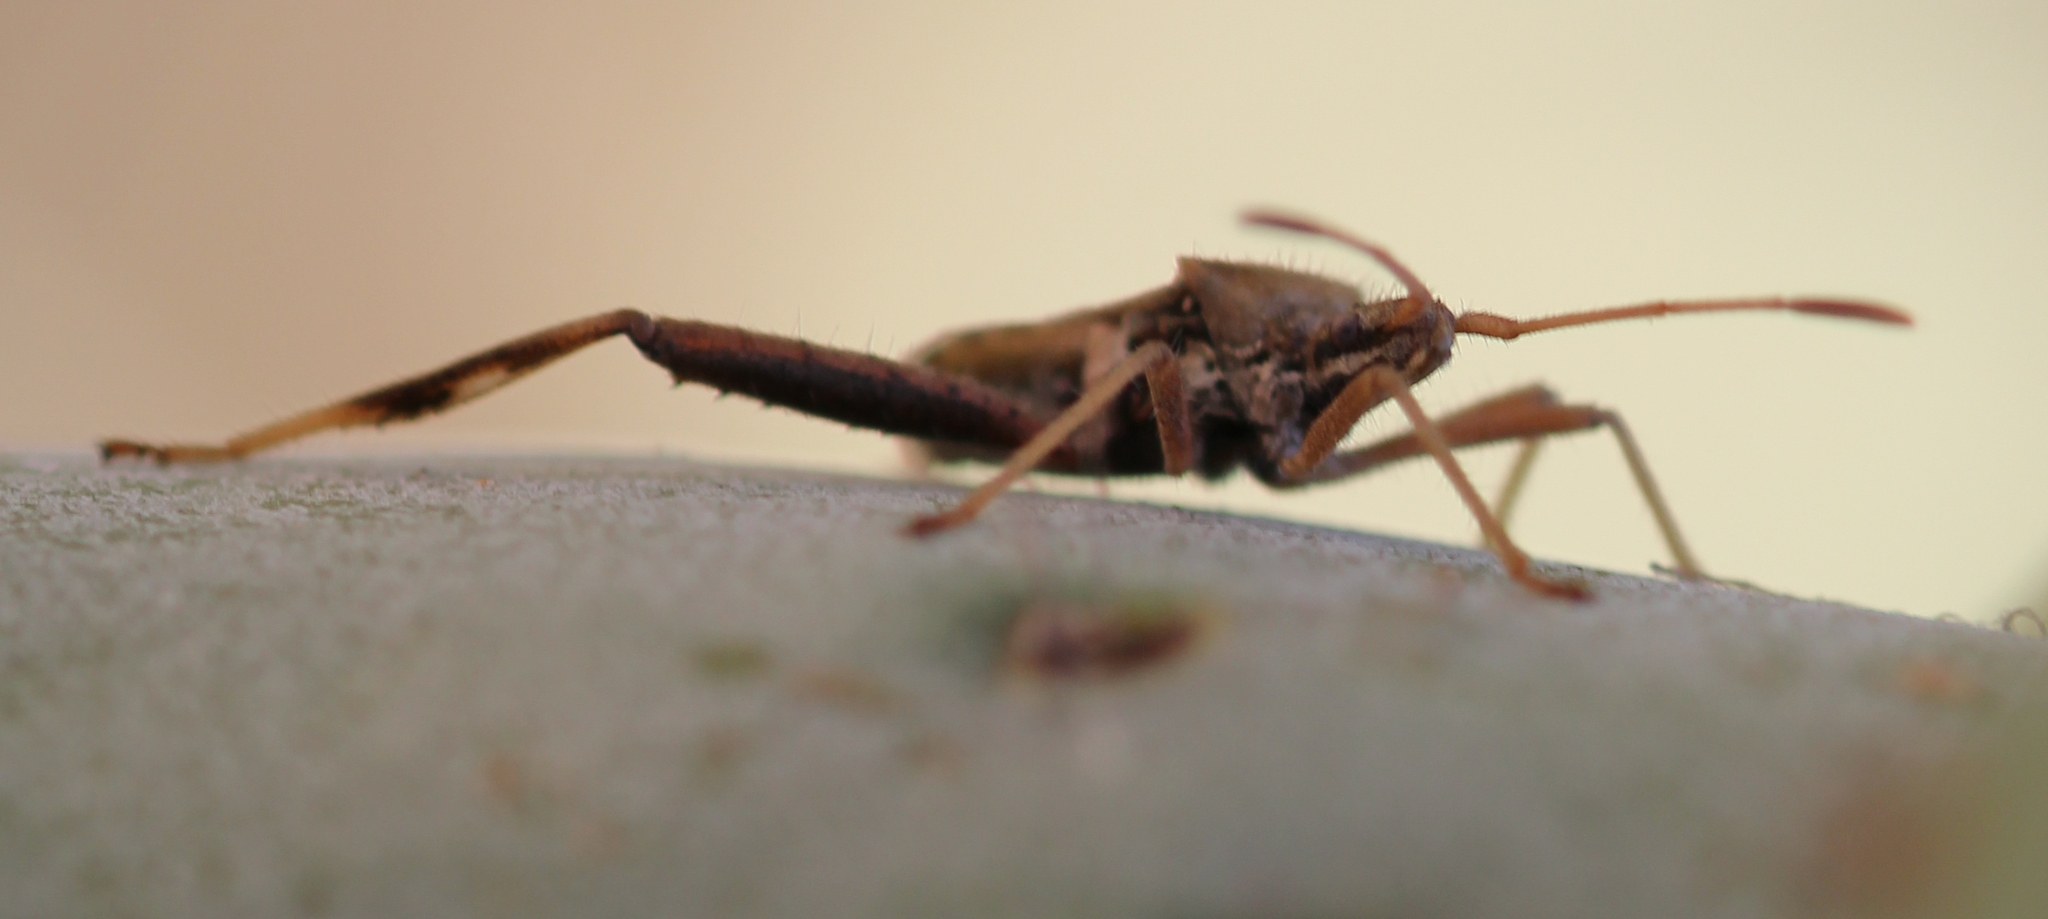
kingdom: Animalia
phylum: Arthropoda
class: Insecta
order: Hemiptera
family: Coreidae
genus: Narnia
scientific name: Narnia femorata
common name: Leaf-footed cactus bug
